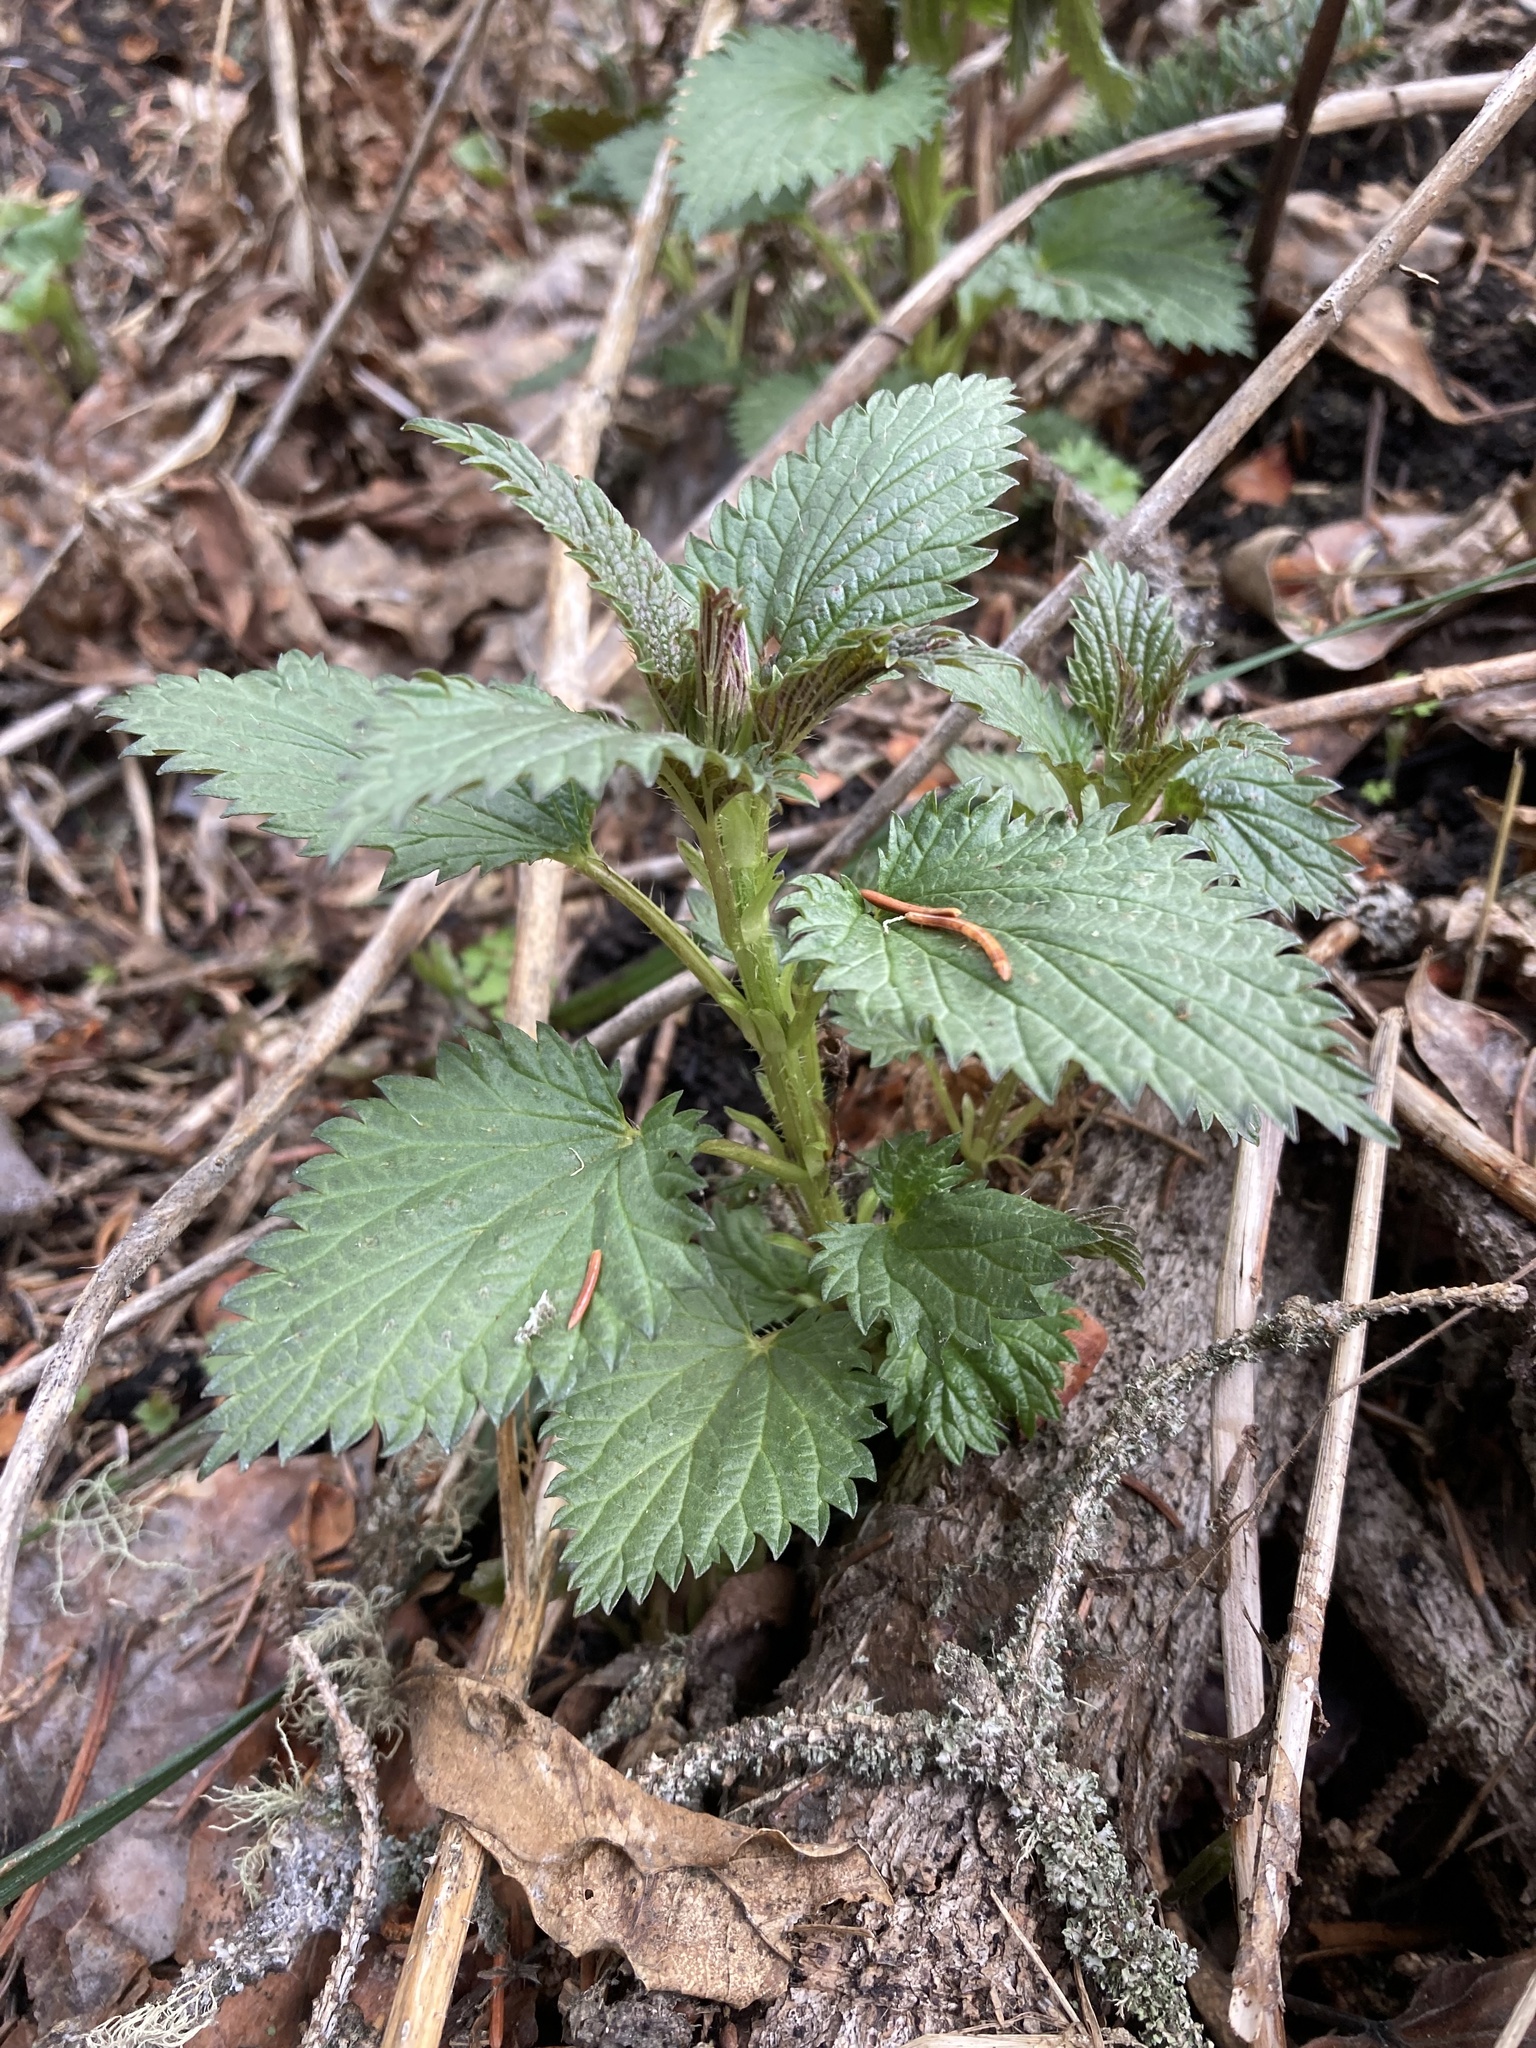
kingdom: Plantae
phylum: Tracheophyta
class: Magnoliopsida
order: Rosales
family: Urticaceae
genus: Urtica
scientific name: Urtica gracilis
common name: Slender stinging nettle
